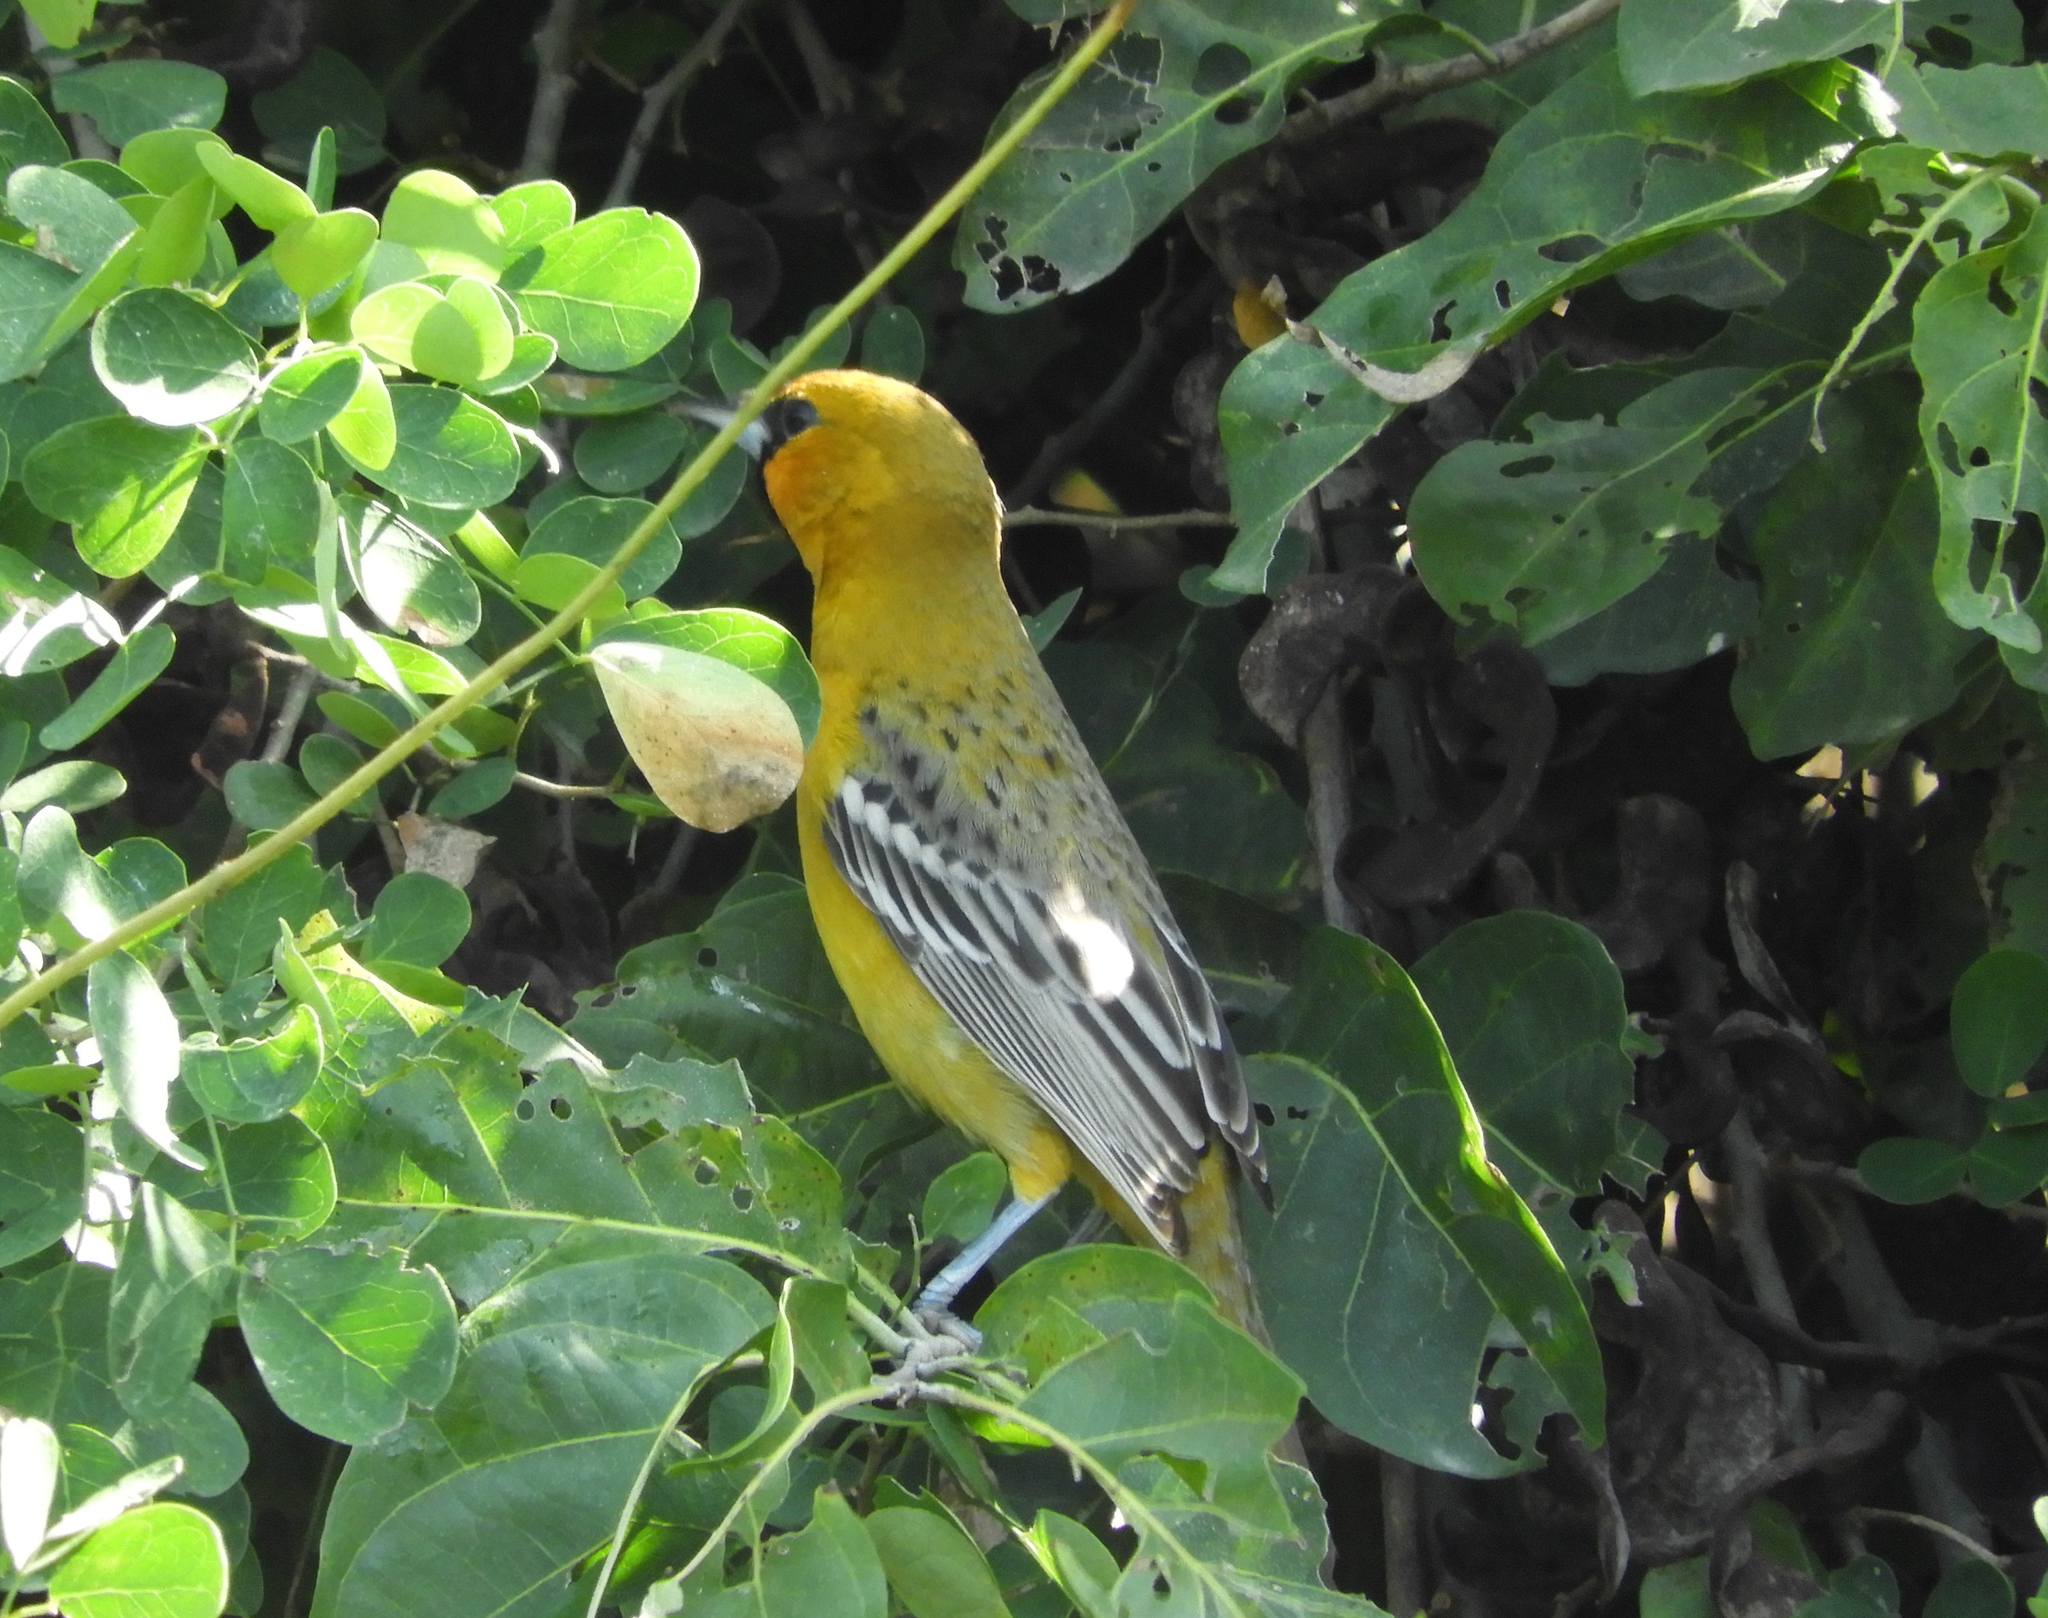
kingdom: Animalia
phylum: Chordata
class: Aves
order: Passeriformes
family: Icteridae
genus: Icterus
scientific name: Icterus pustulatus
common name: Streak-backed oriole
